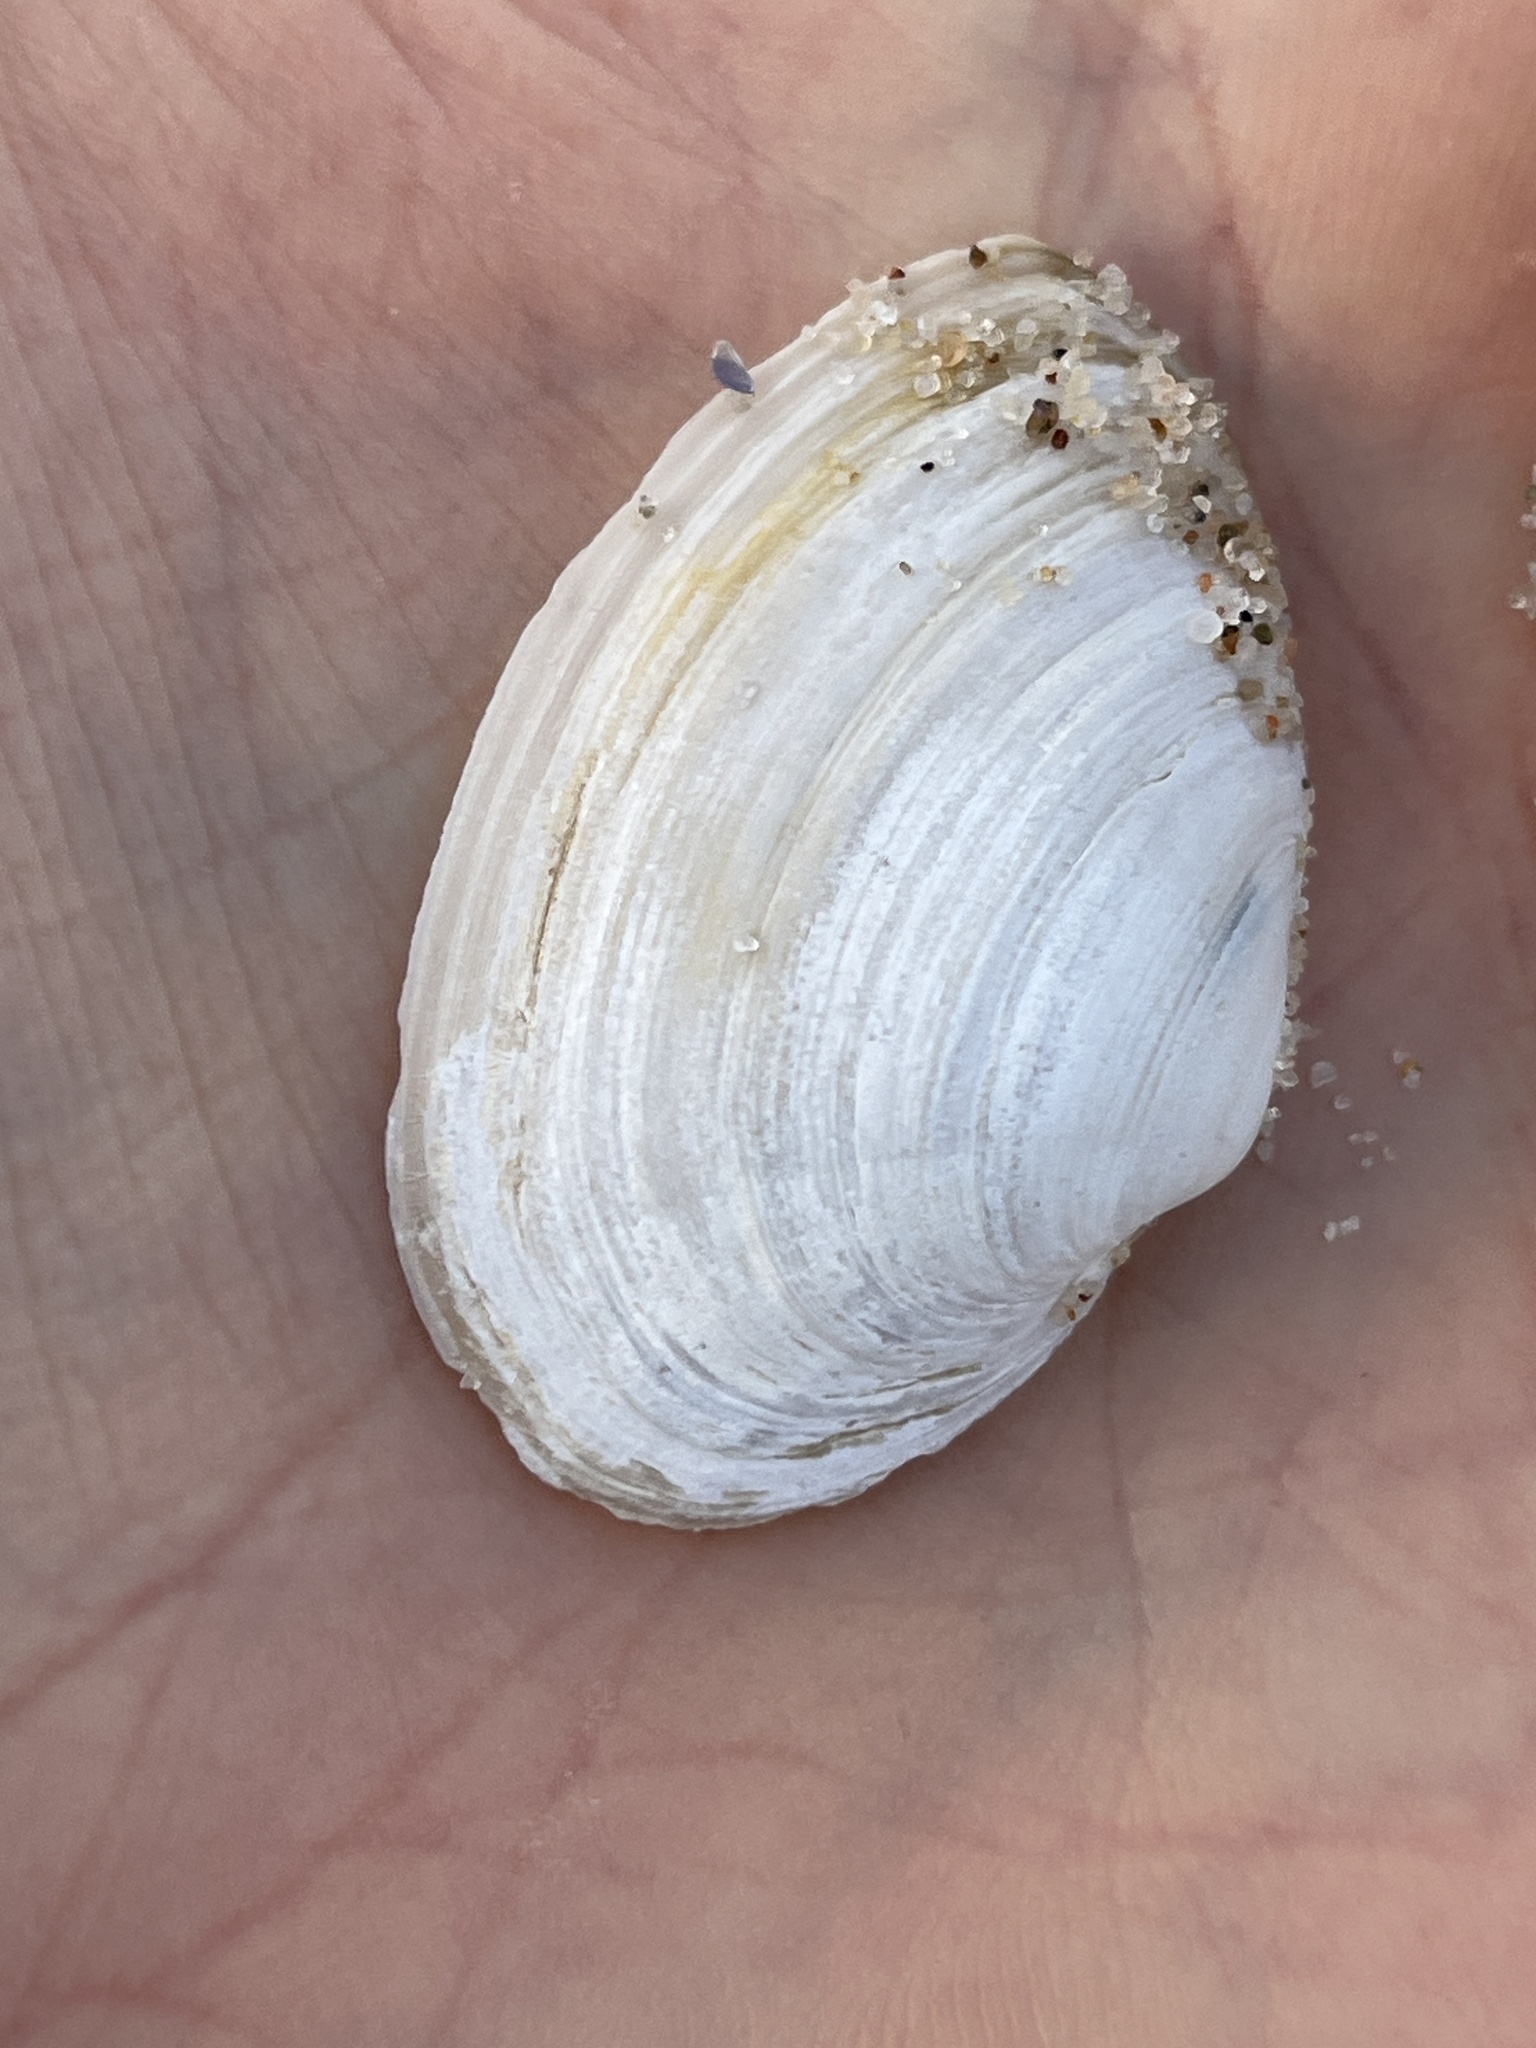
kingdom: Animalia
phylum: Mollusca
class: Bivalvia
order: Myida
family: Myidae
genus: Mya
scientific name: Mya arenaria
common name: Soft-shelled clam
